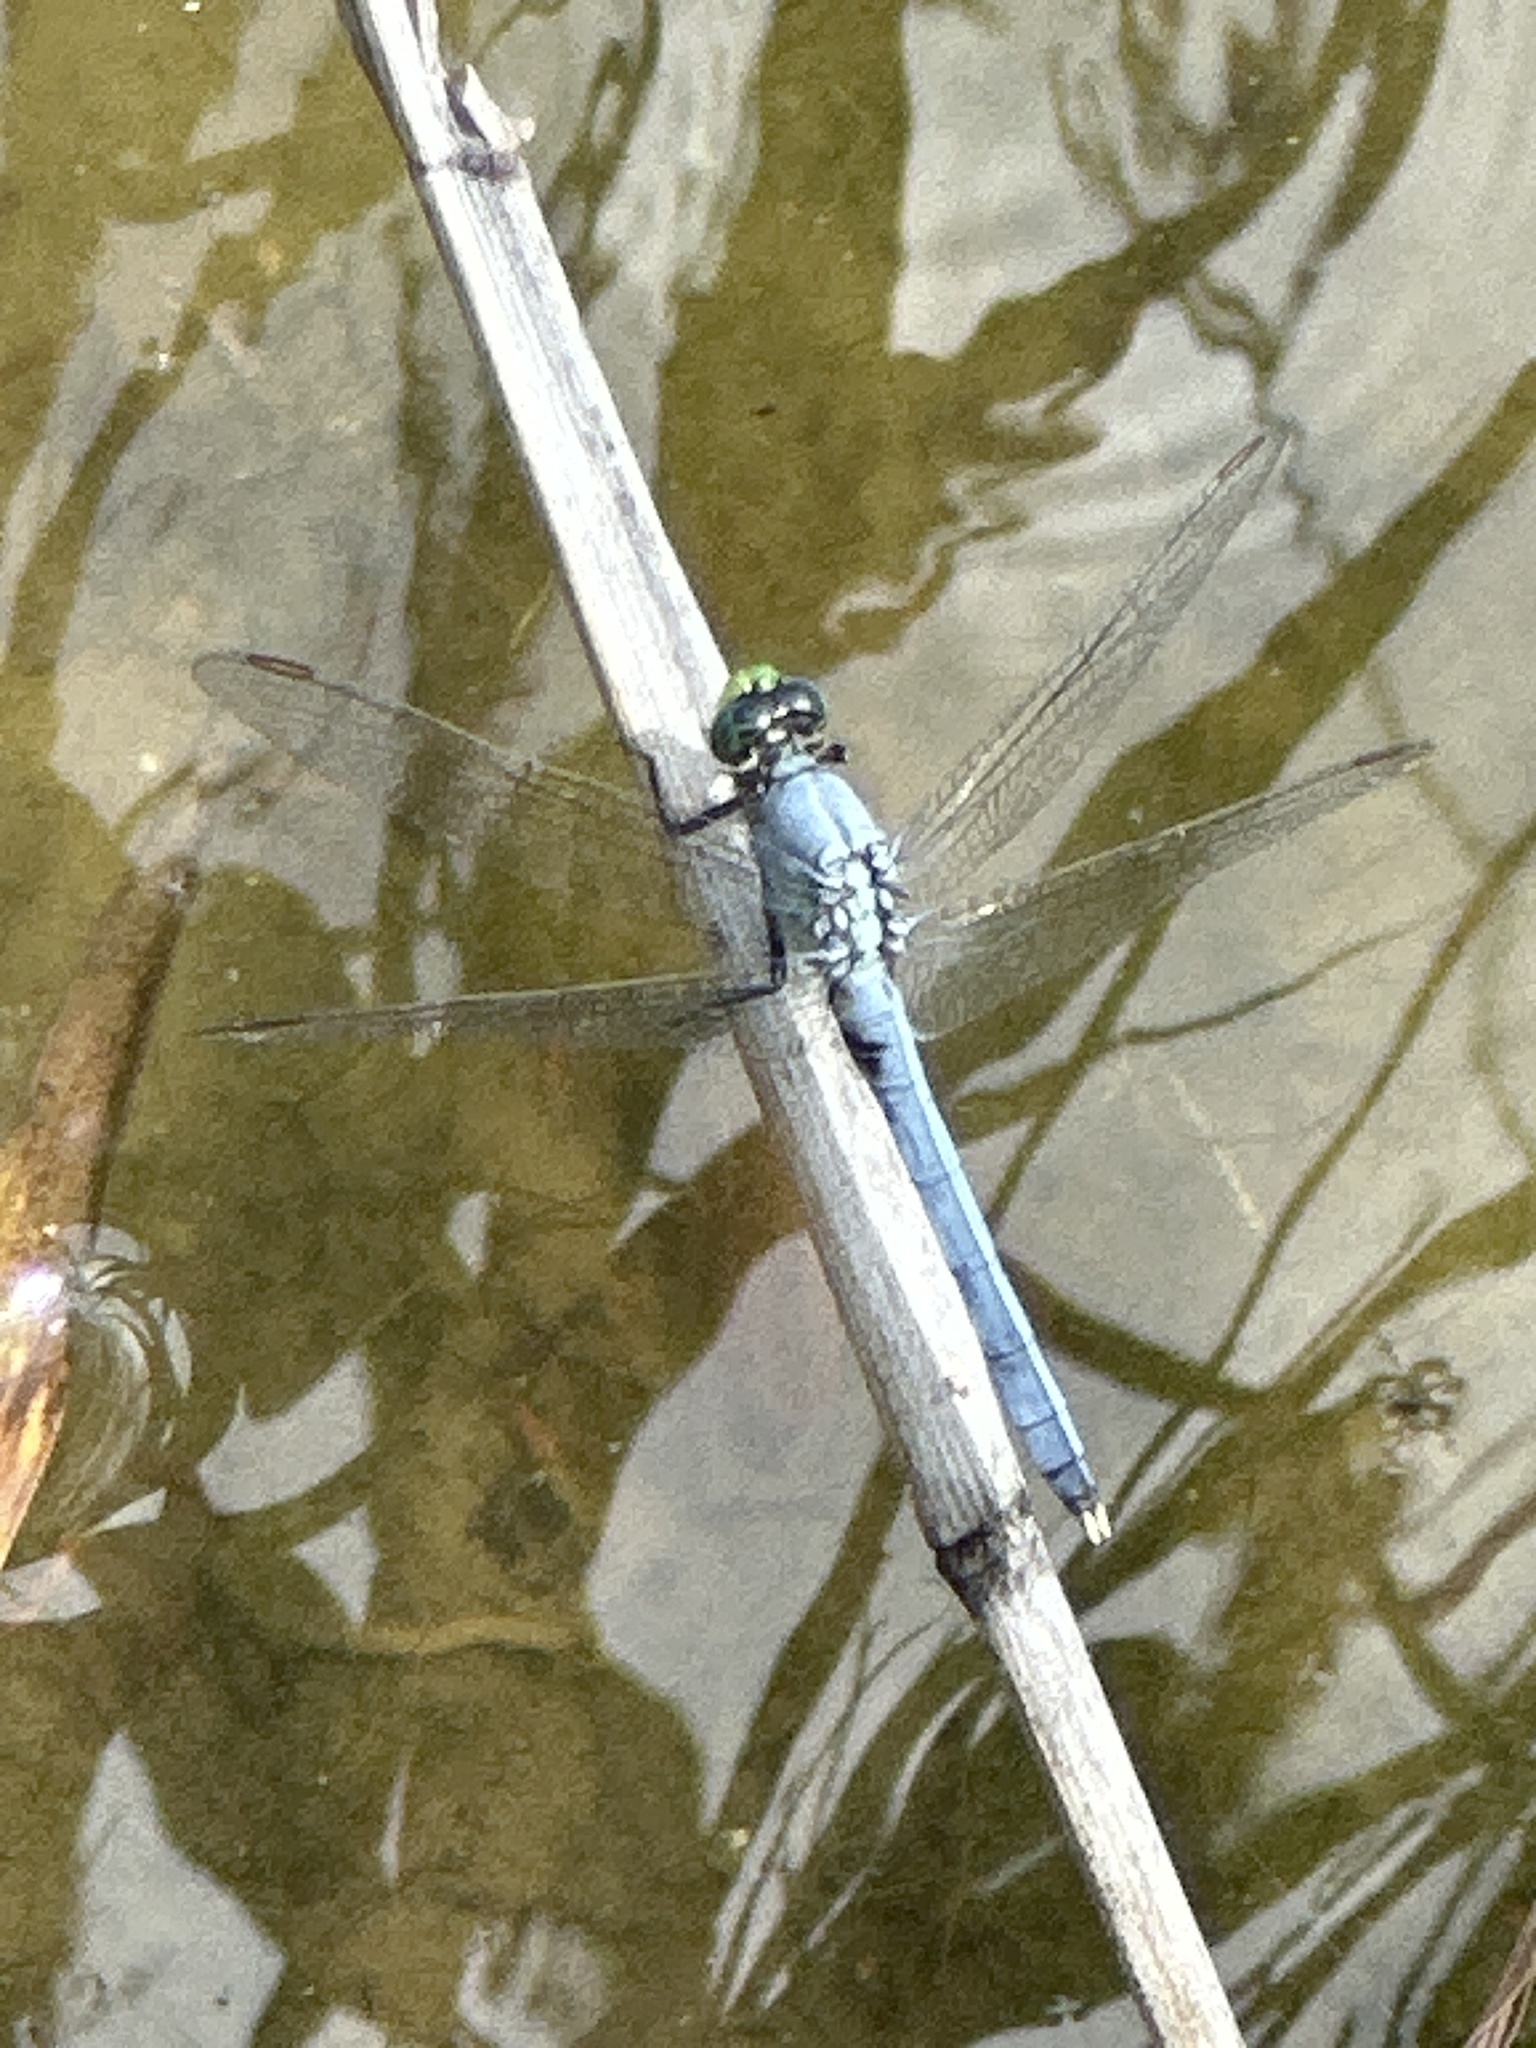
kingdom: Animalia
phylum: Arthropoda
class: Insecta
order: Odonata
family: Libellulidae
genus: Erythemis
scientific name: Erythemis simplicicollis
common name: Eastern pondhawk
